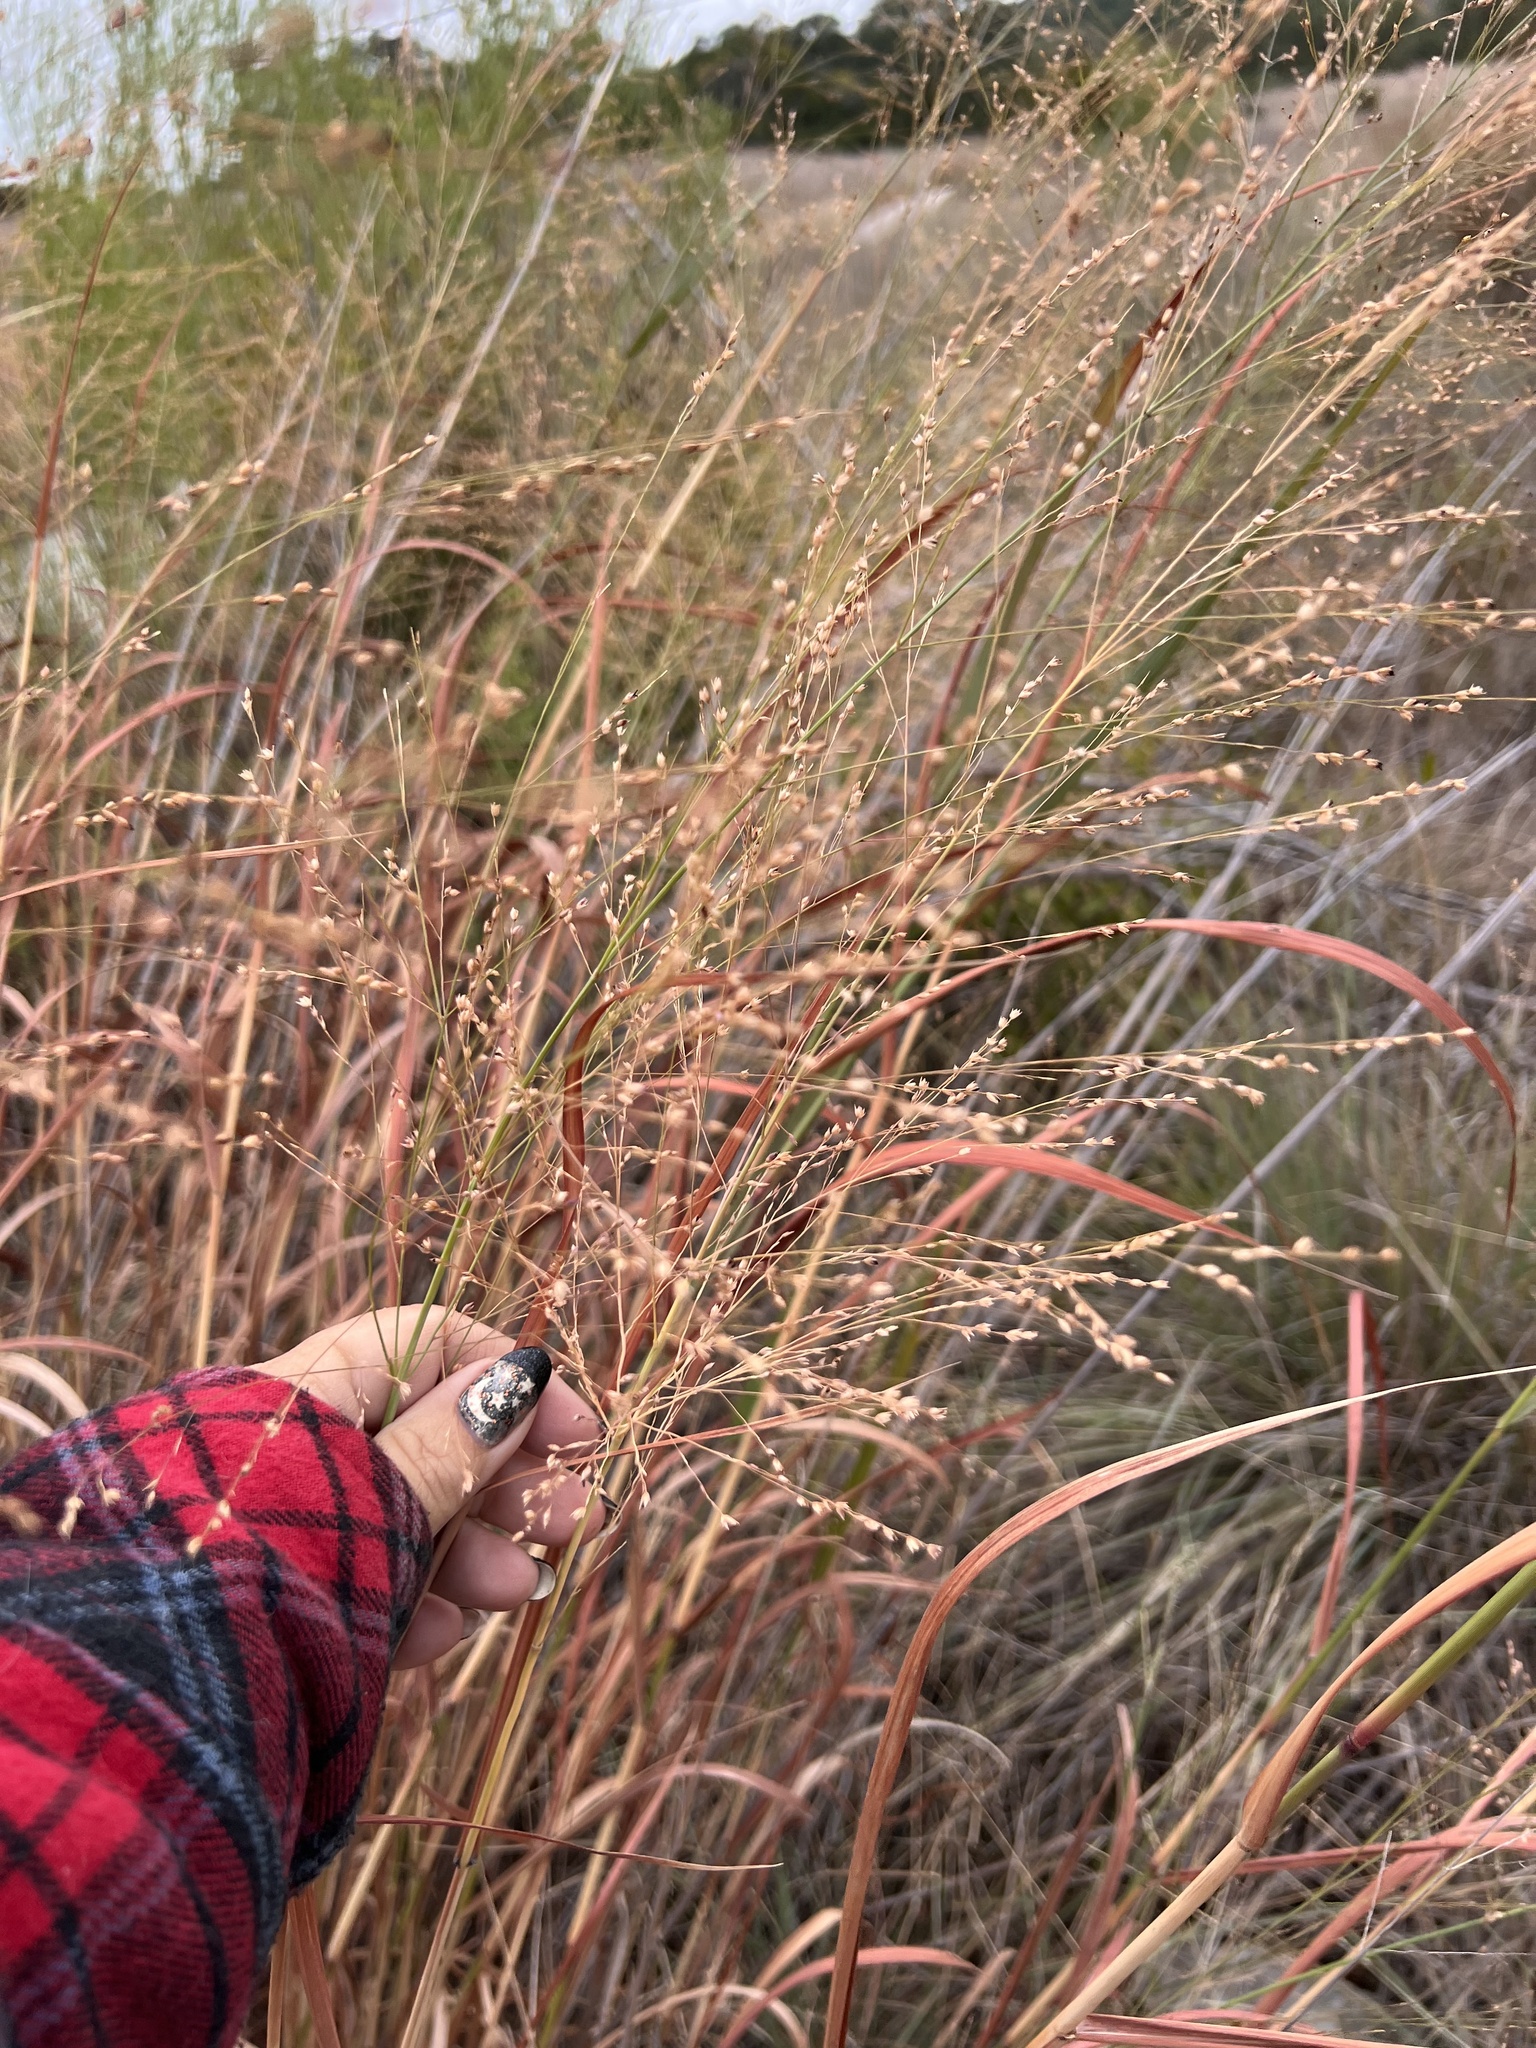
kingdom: Plantae
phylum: Tracheophyta
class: Liliopsida
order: Poales
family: Poaceae
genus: Panicum
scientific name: Panicum virgatum
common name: Switchgrass
